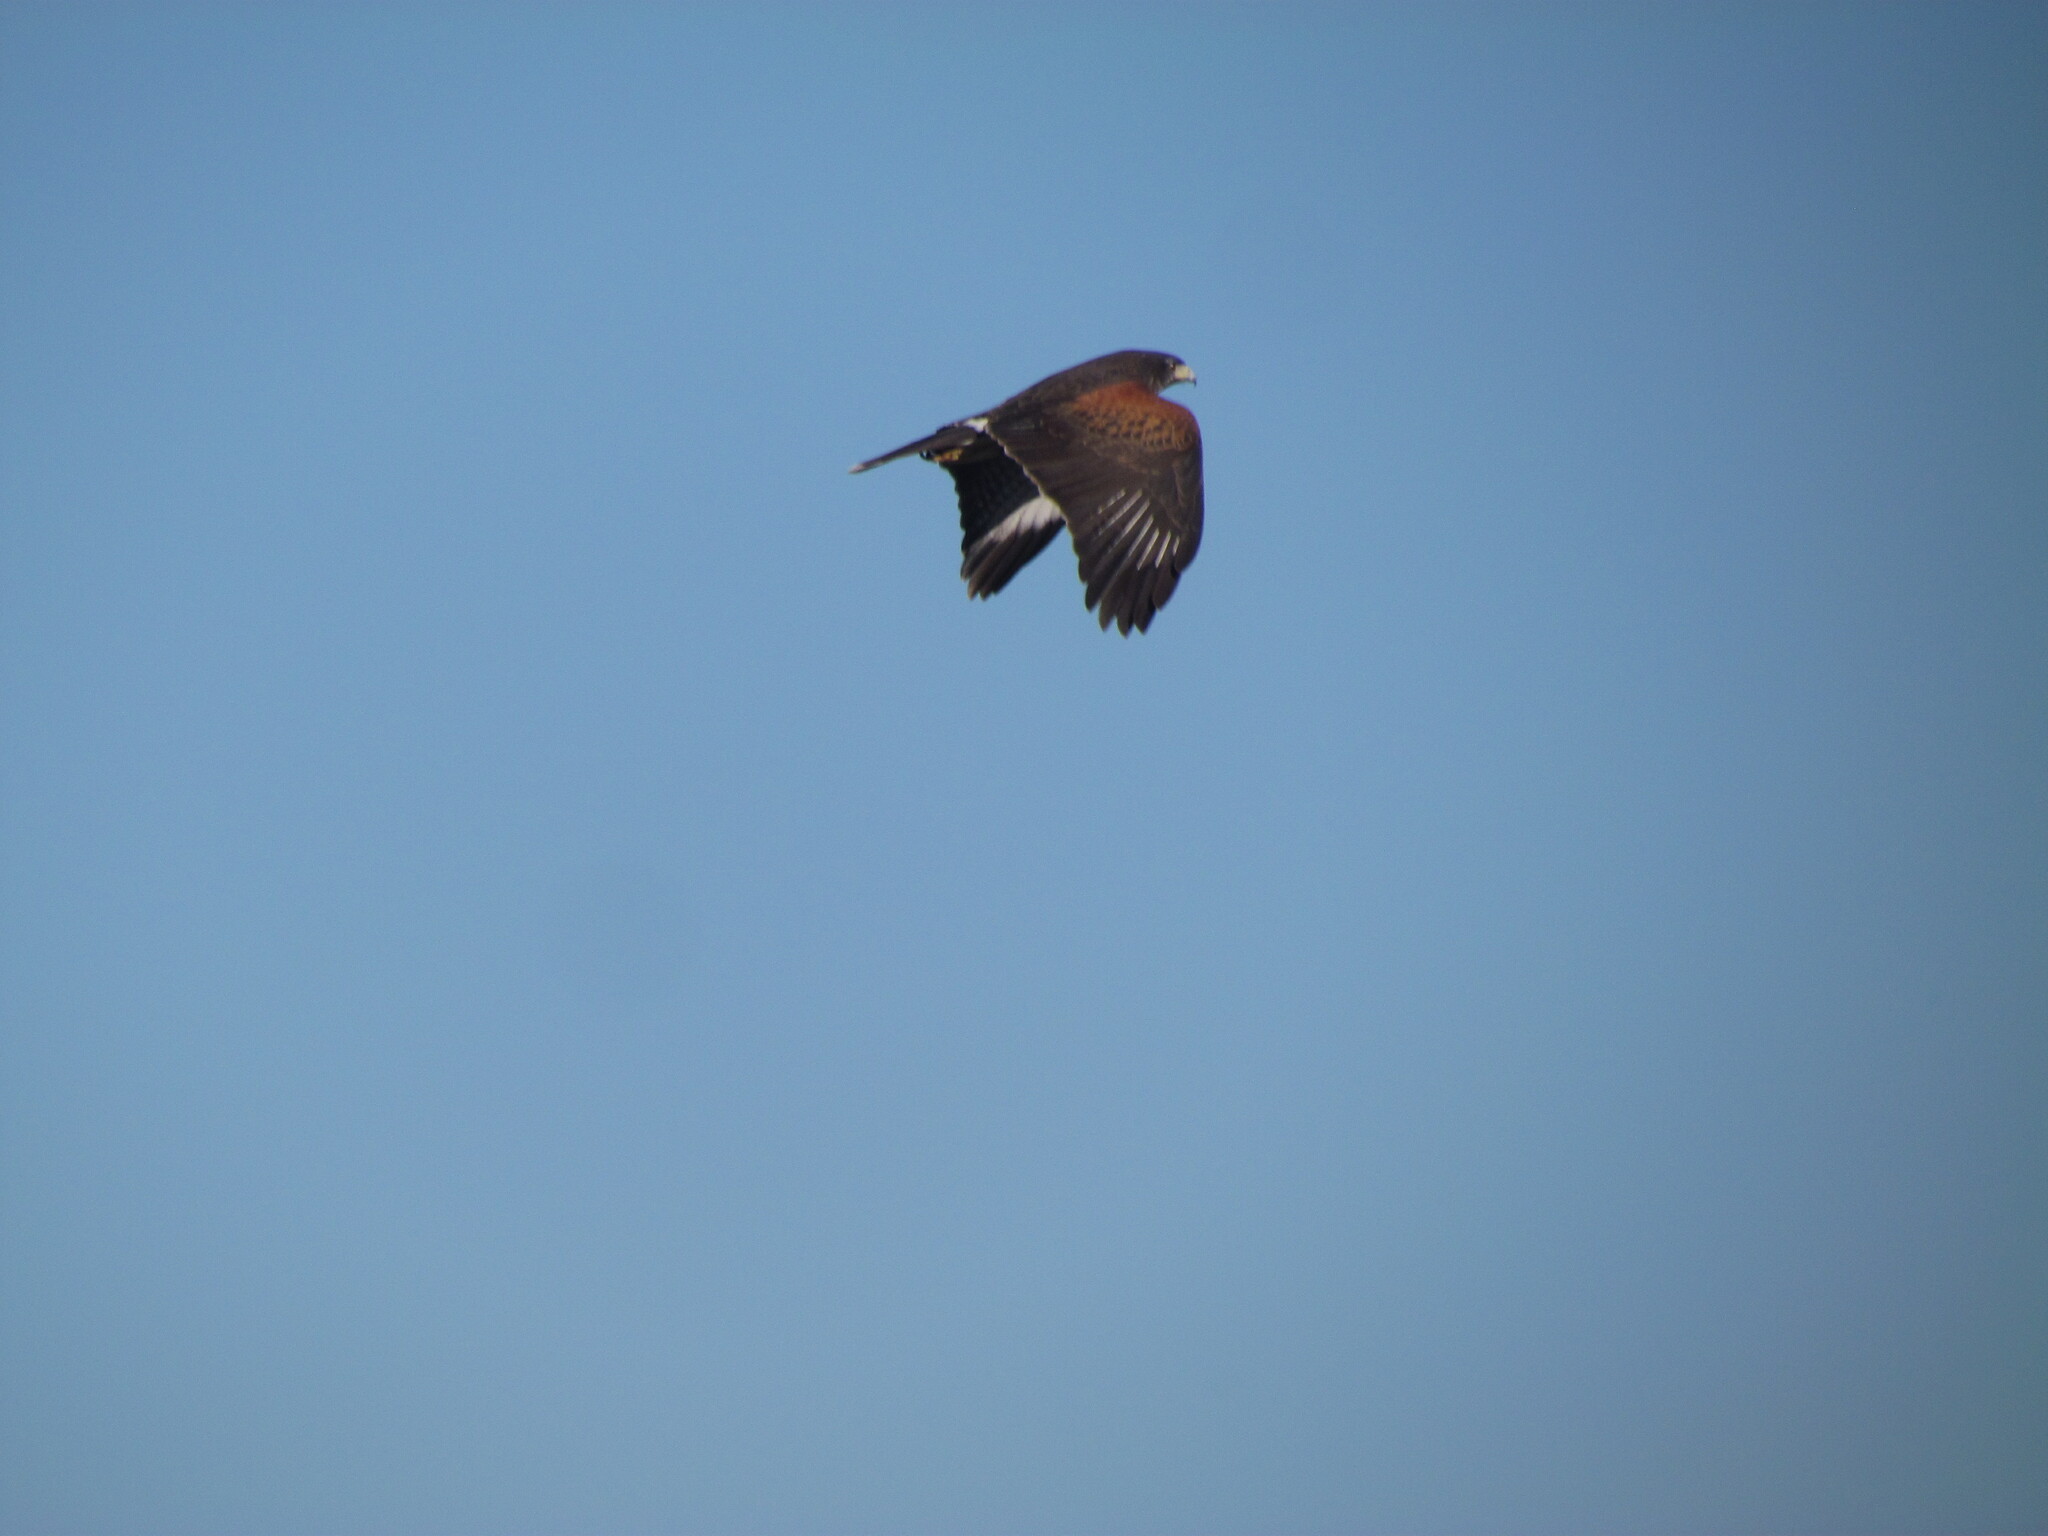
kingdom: Animalia
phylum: Chordata
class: Aves
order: Accipitriformes
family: Accipitridae
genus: Parabuteo
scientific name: Parabuteo unicinctus
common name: Harris's hawk
